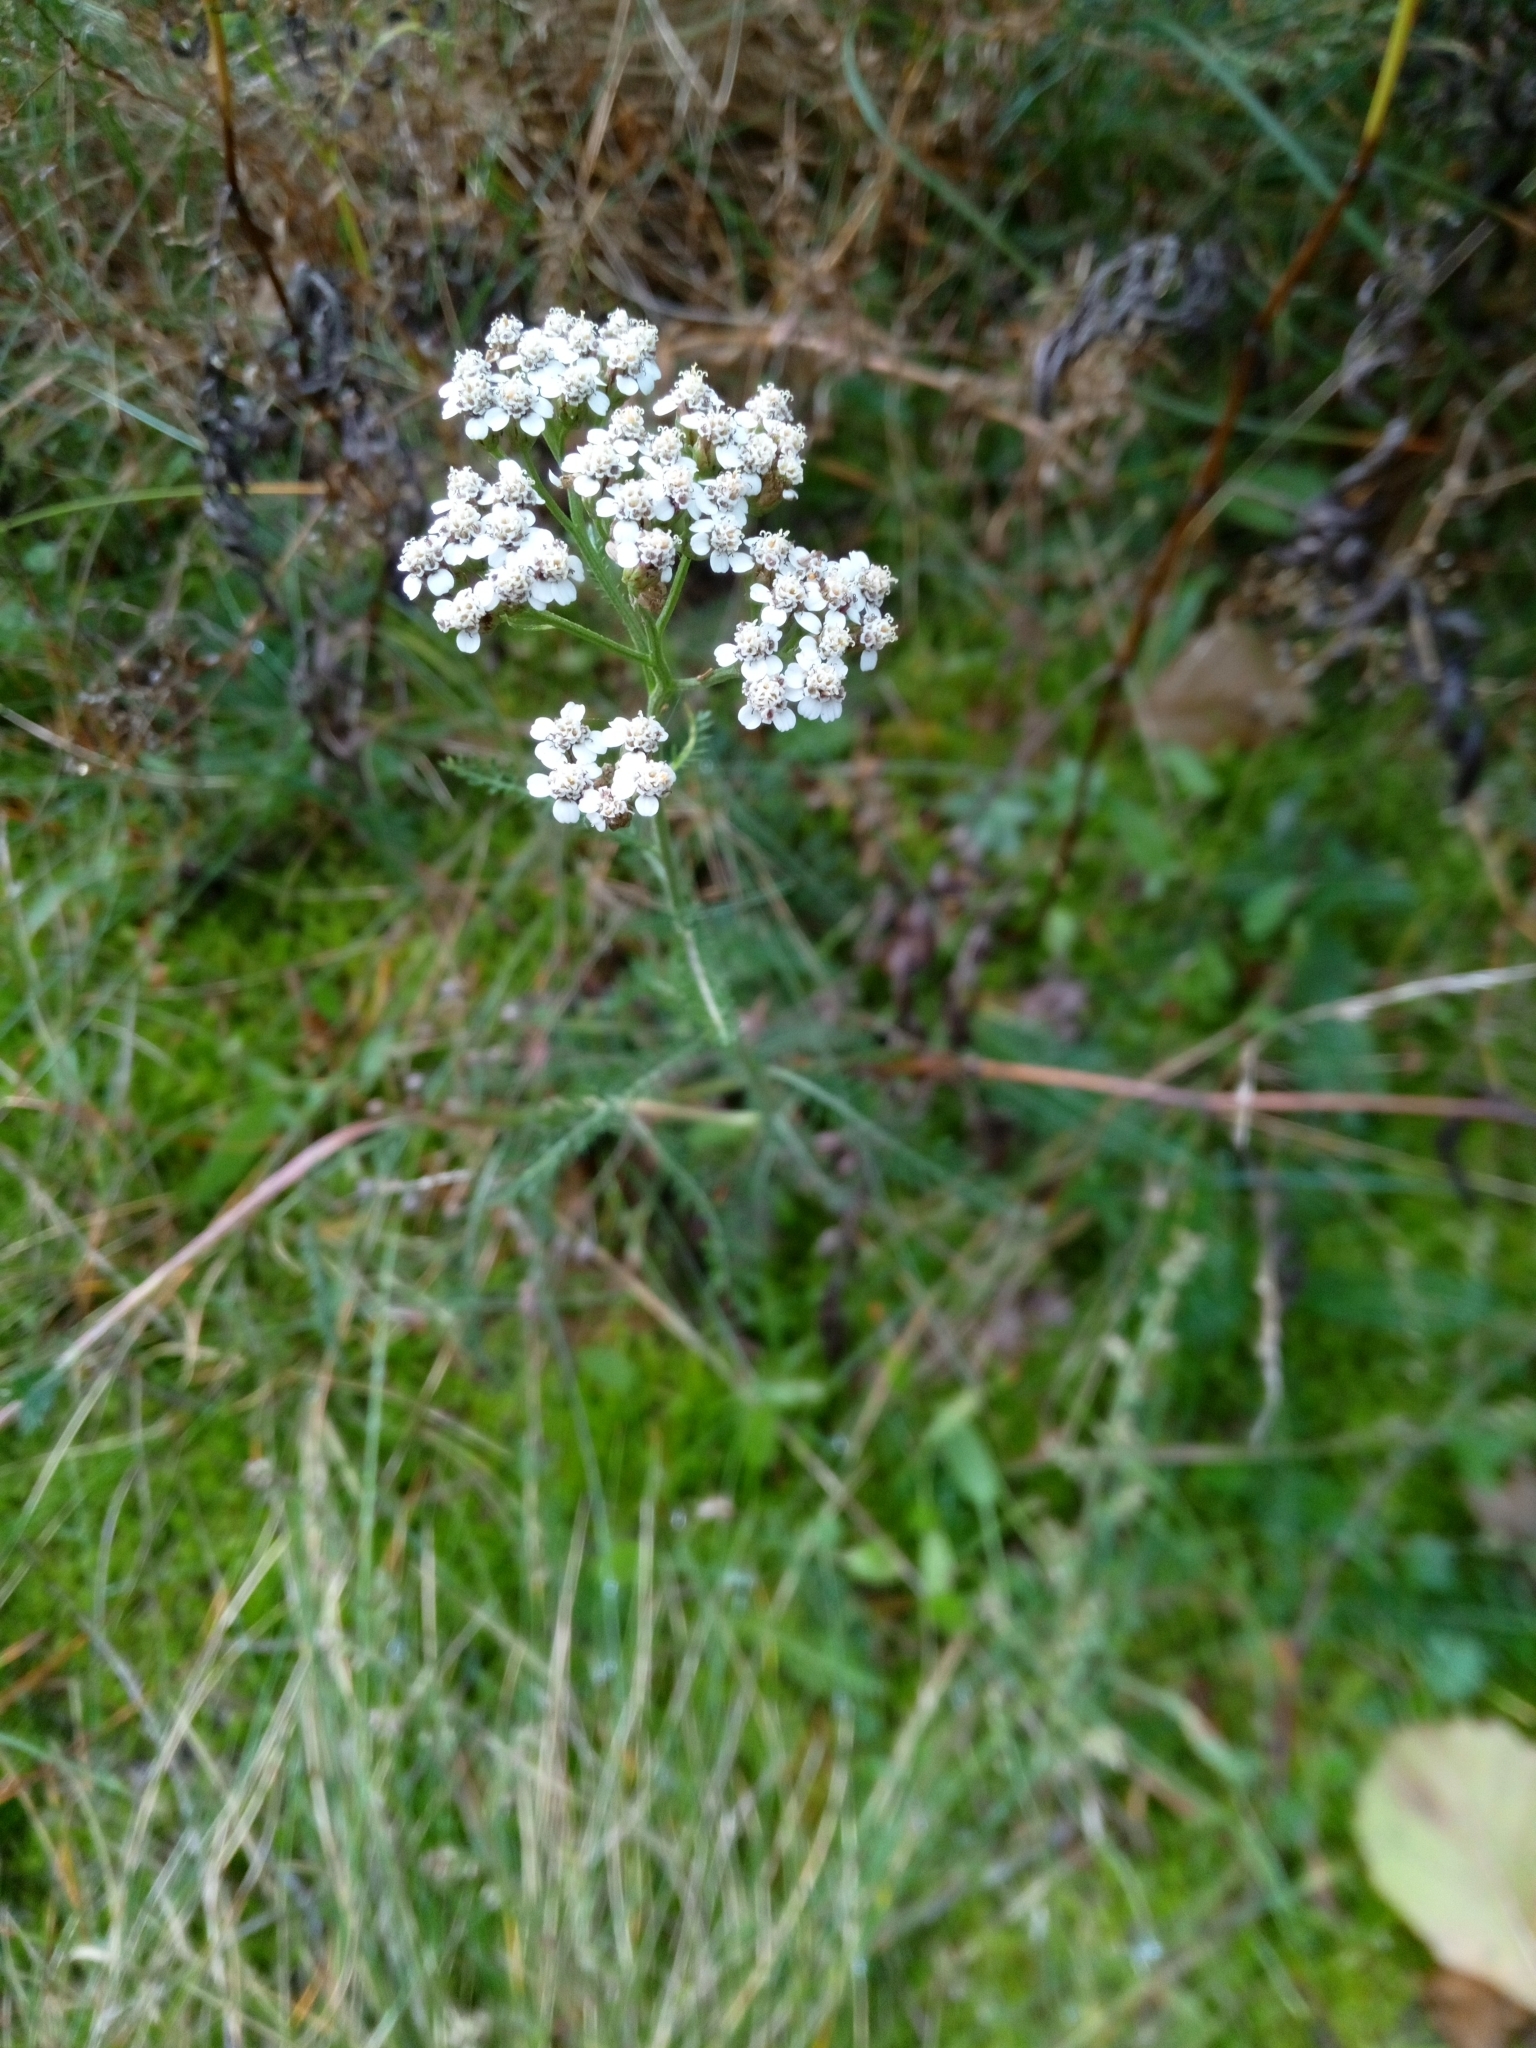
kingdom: Plantae
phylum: Tracheophyta
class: Magnoliopsida
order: Asterales
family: Asteraceae
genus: Achillea
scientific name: Achillea millefolium
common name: Yarrow
